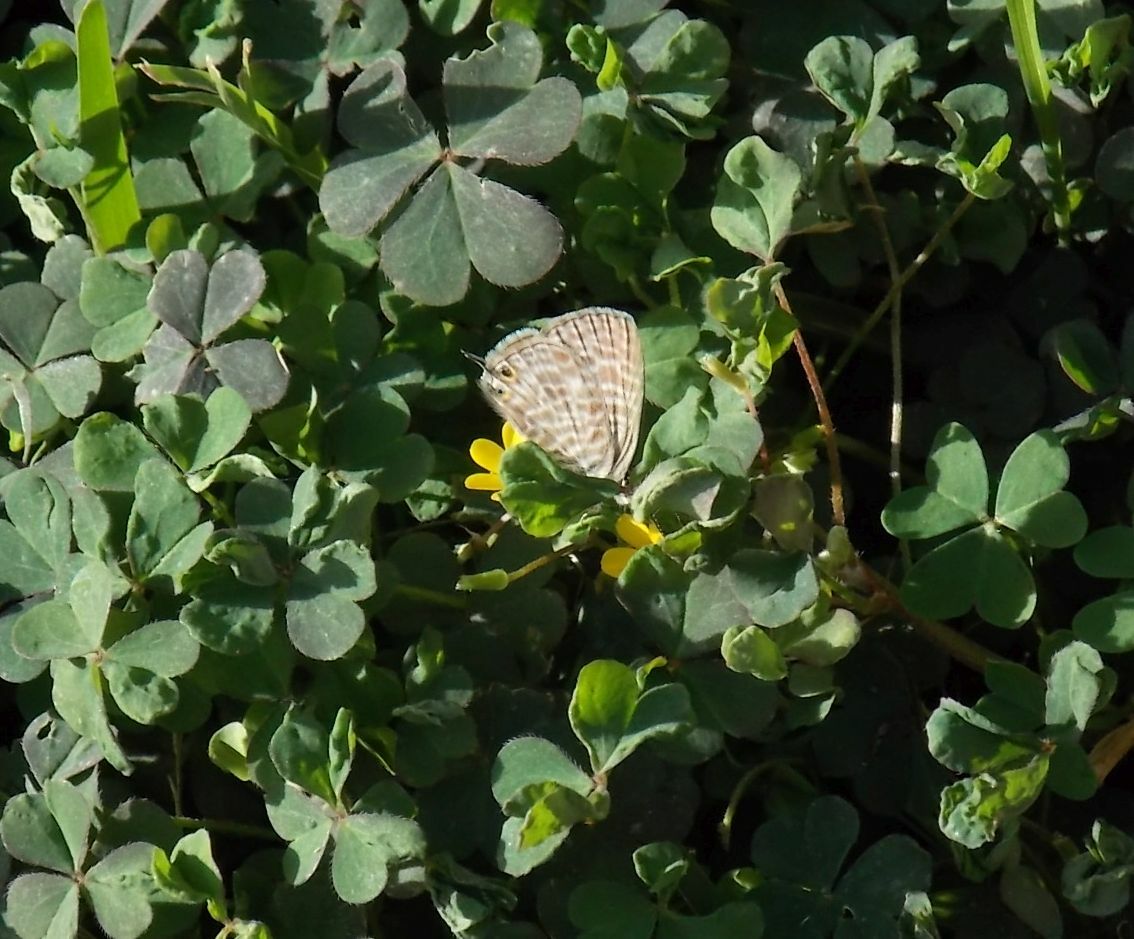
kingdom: Plantae
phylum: Tracheophyta
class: Magnoliopsida
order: Oxalidales
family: Oxalidaceae
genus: Oxalis
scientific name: Oxalis pes-caprae
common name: Bermuda-buttercup
